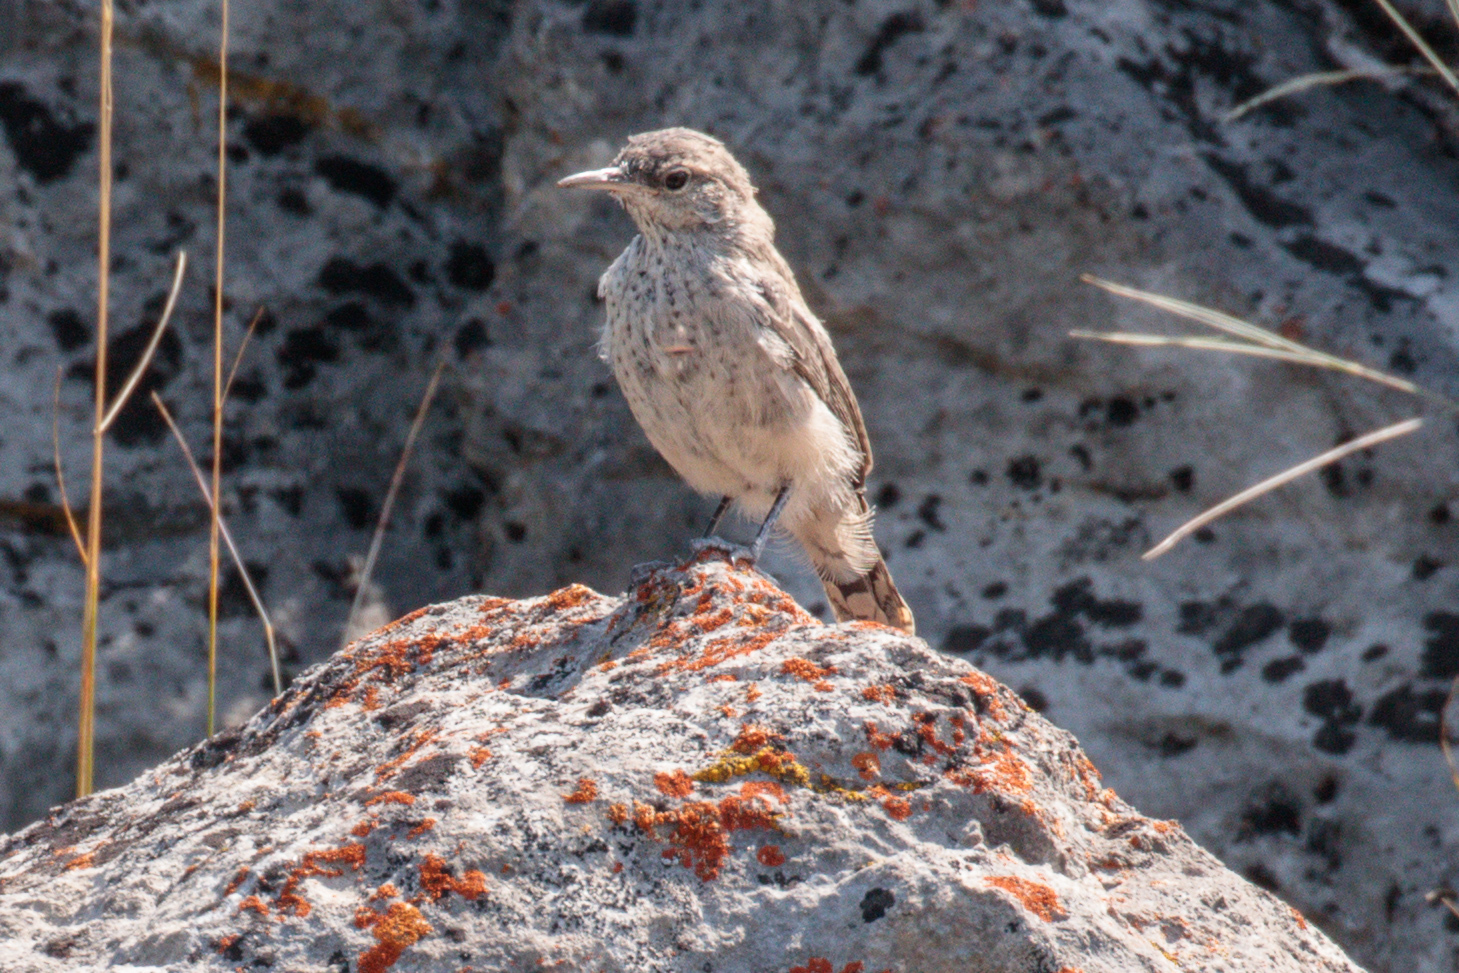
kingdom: Animalia
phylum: Chordata
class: Aves
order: Passeriformes
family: Troglodytidae
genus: Salpinctes
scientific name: Salpinctes obsoletus
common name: Rock wren
